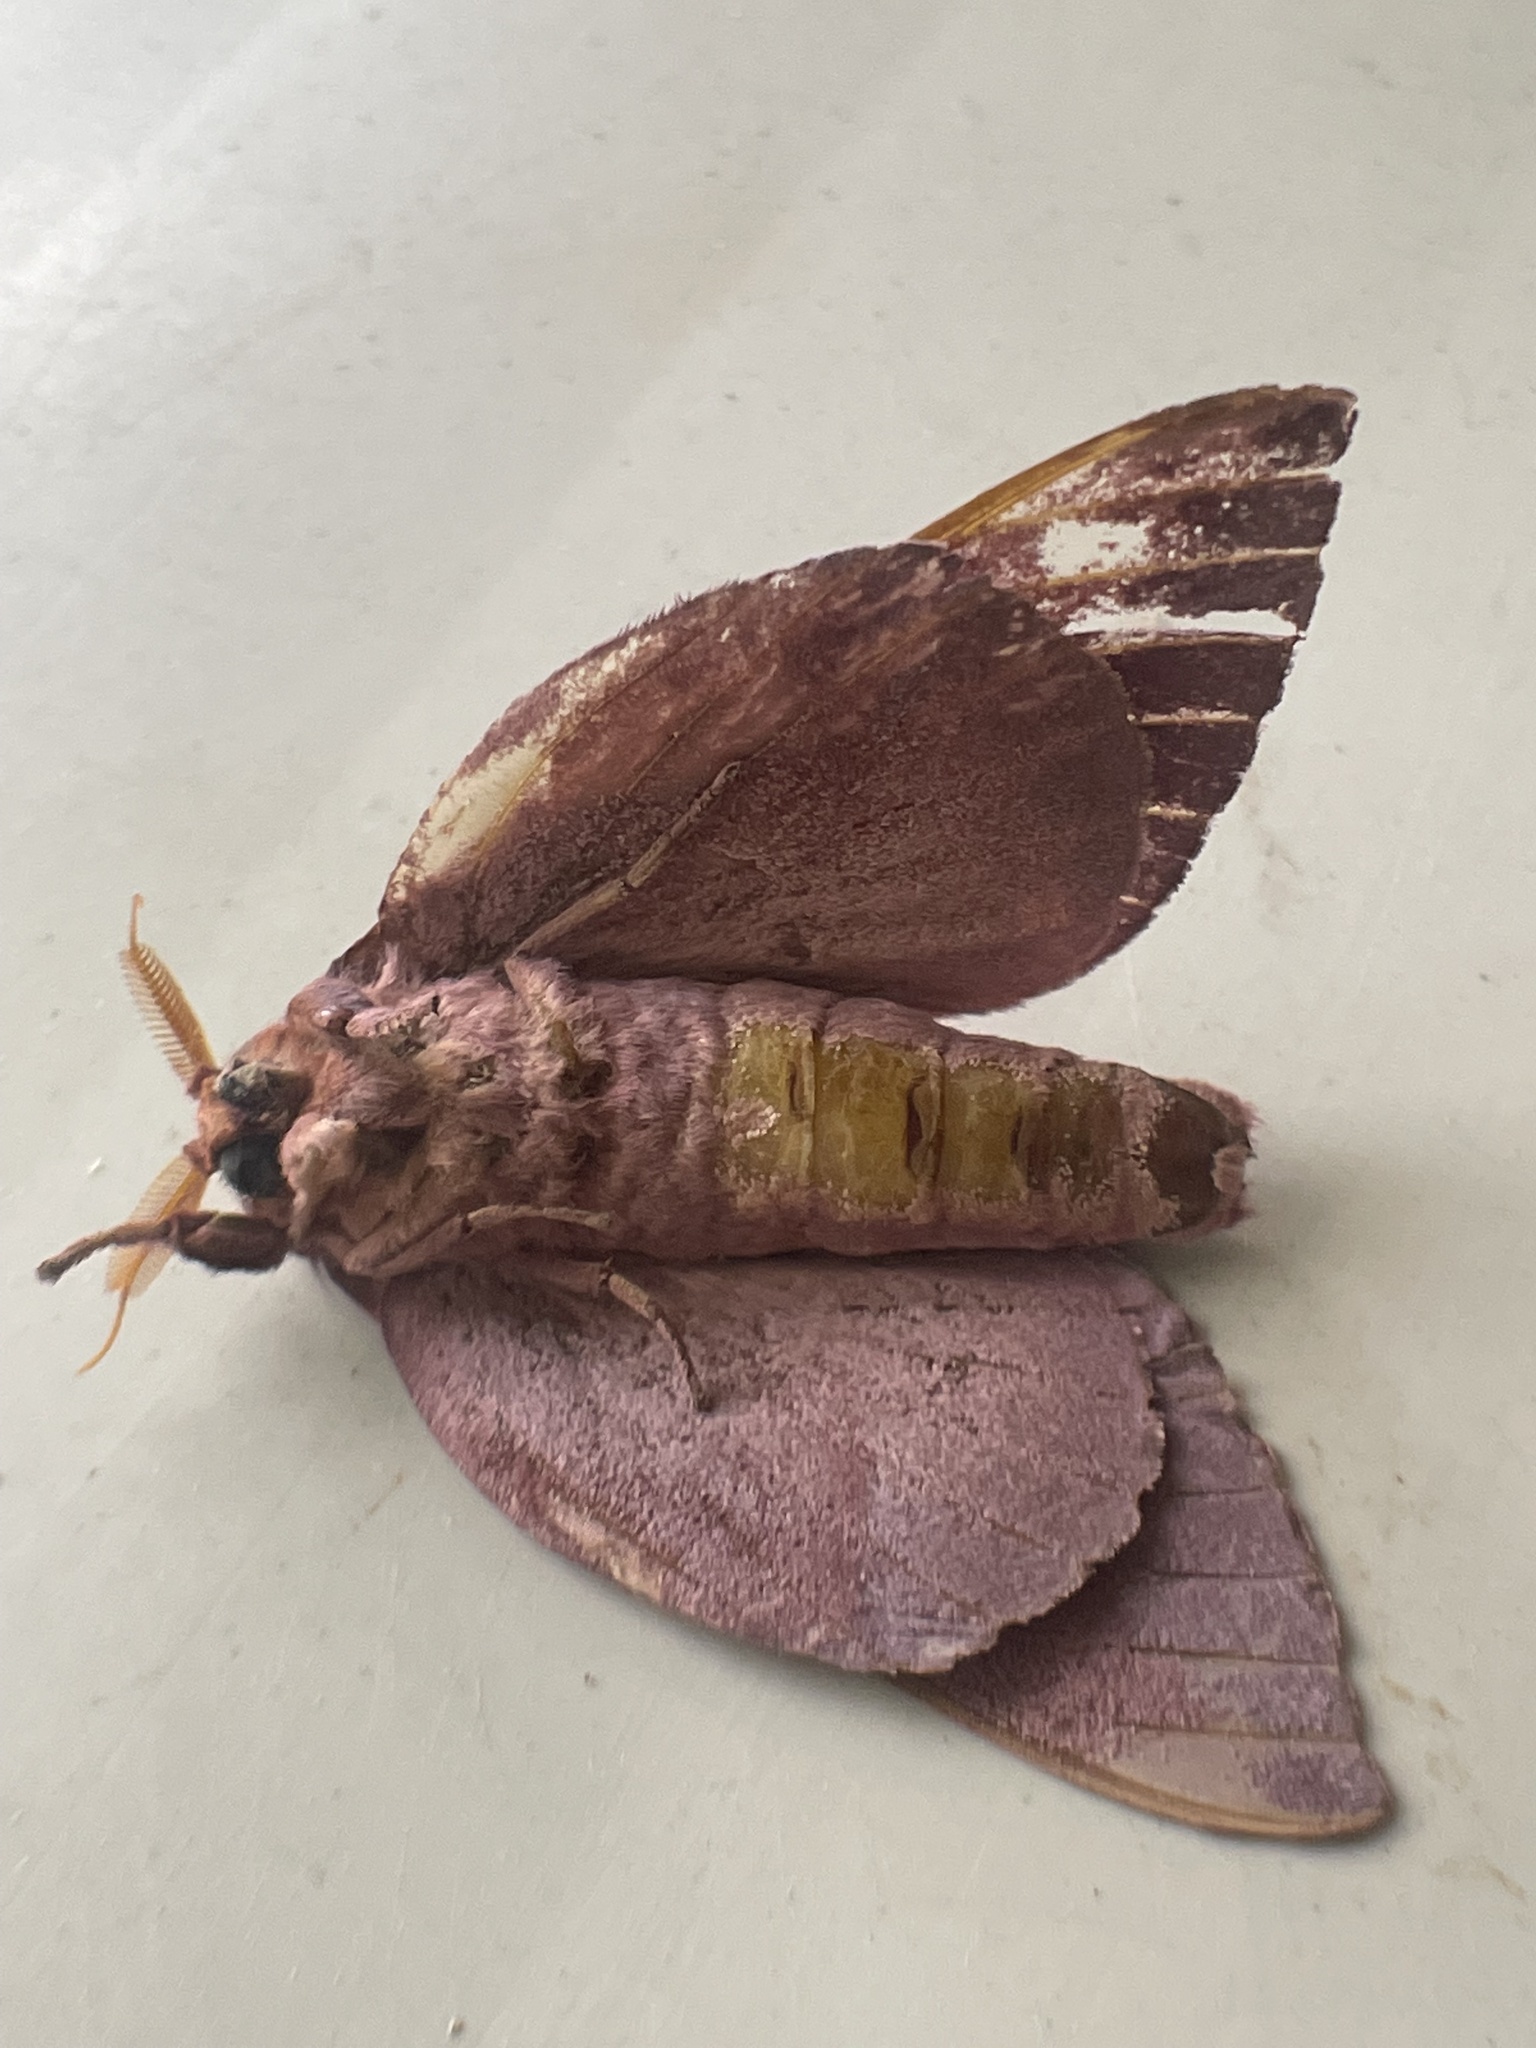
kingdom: Animalia
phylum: Arthropoda
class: Insecta
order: Lepidoptera
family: Saturniidae
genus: Othorene
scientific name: Othorene purpurascens
